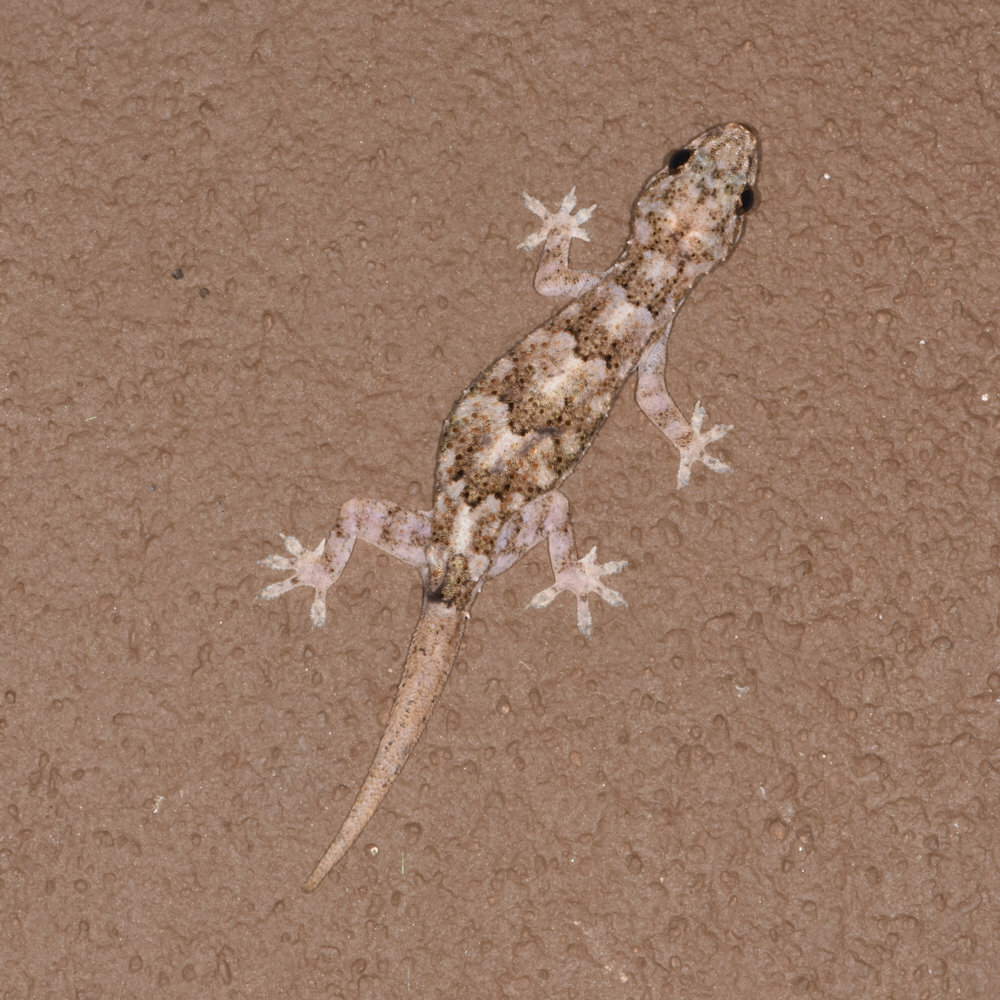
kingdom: Animalia
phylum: Chordata
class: Squamata
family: Gekkonidae
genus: Hemidactylus
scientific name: Hemidactylus mabouia
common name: House gecko
